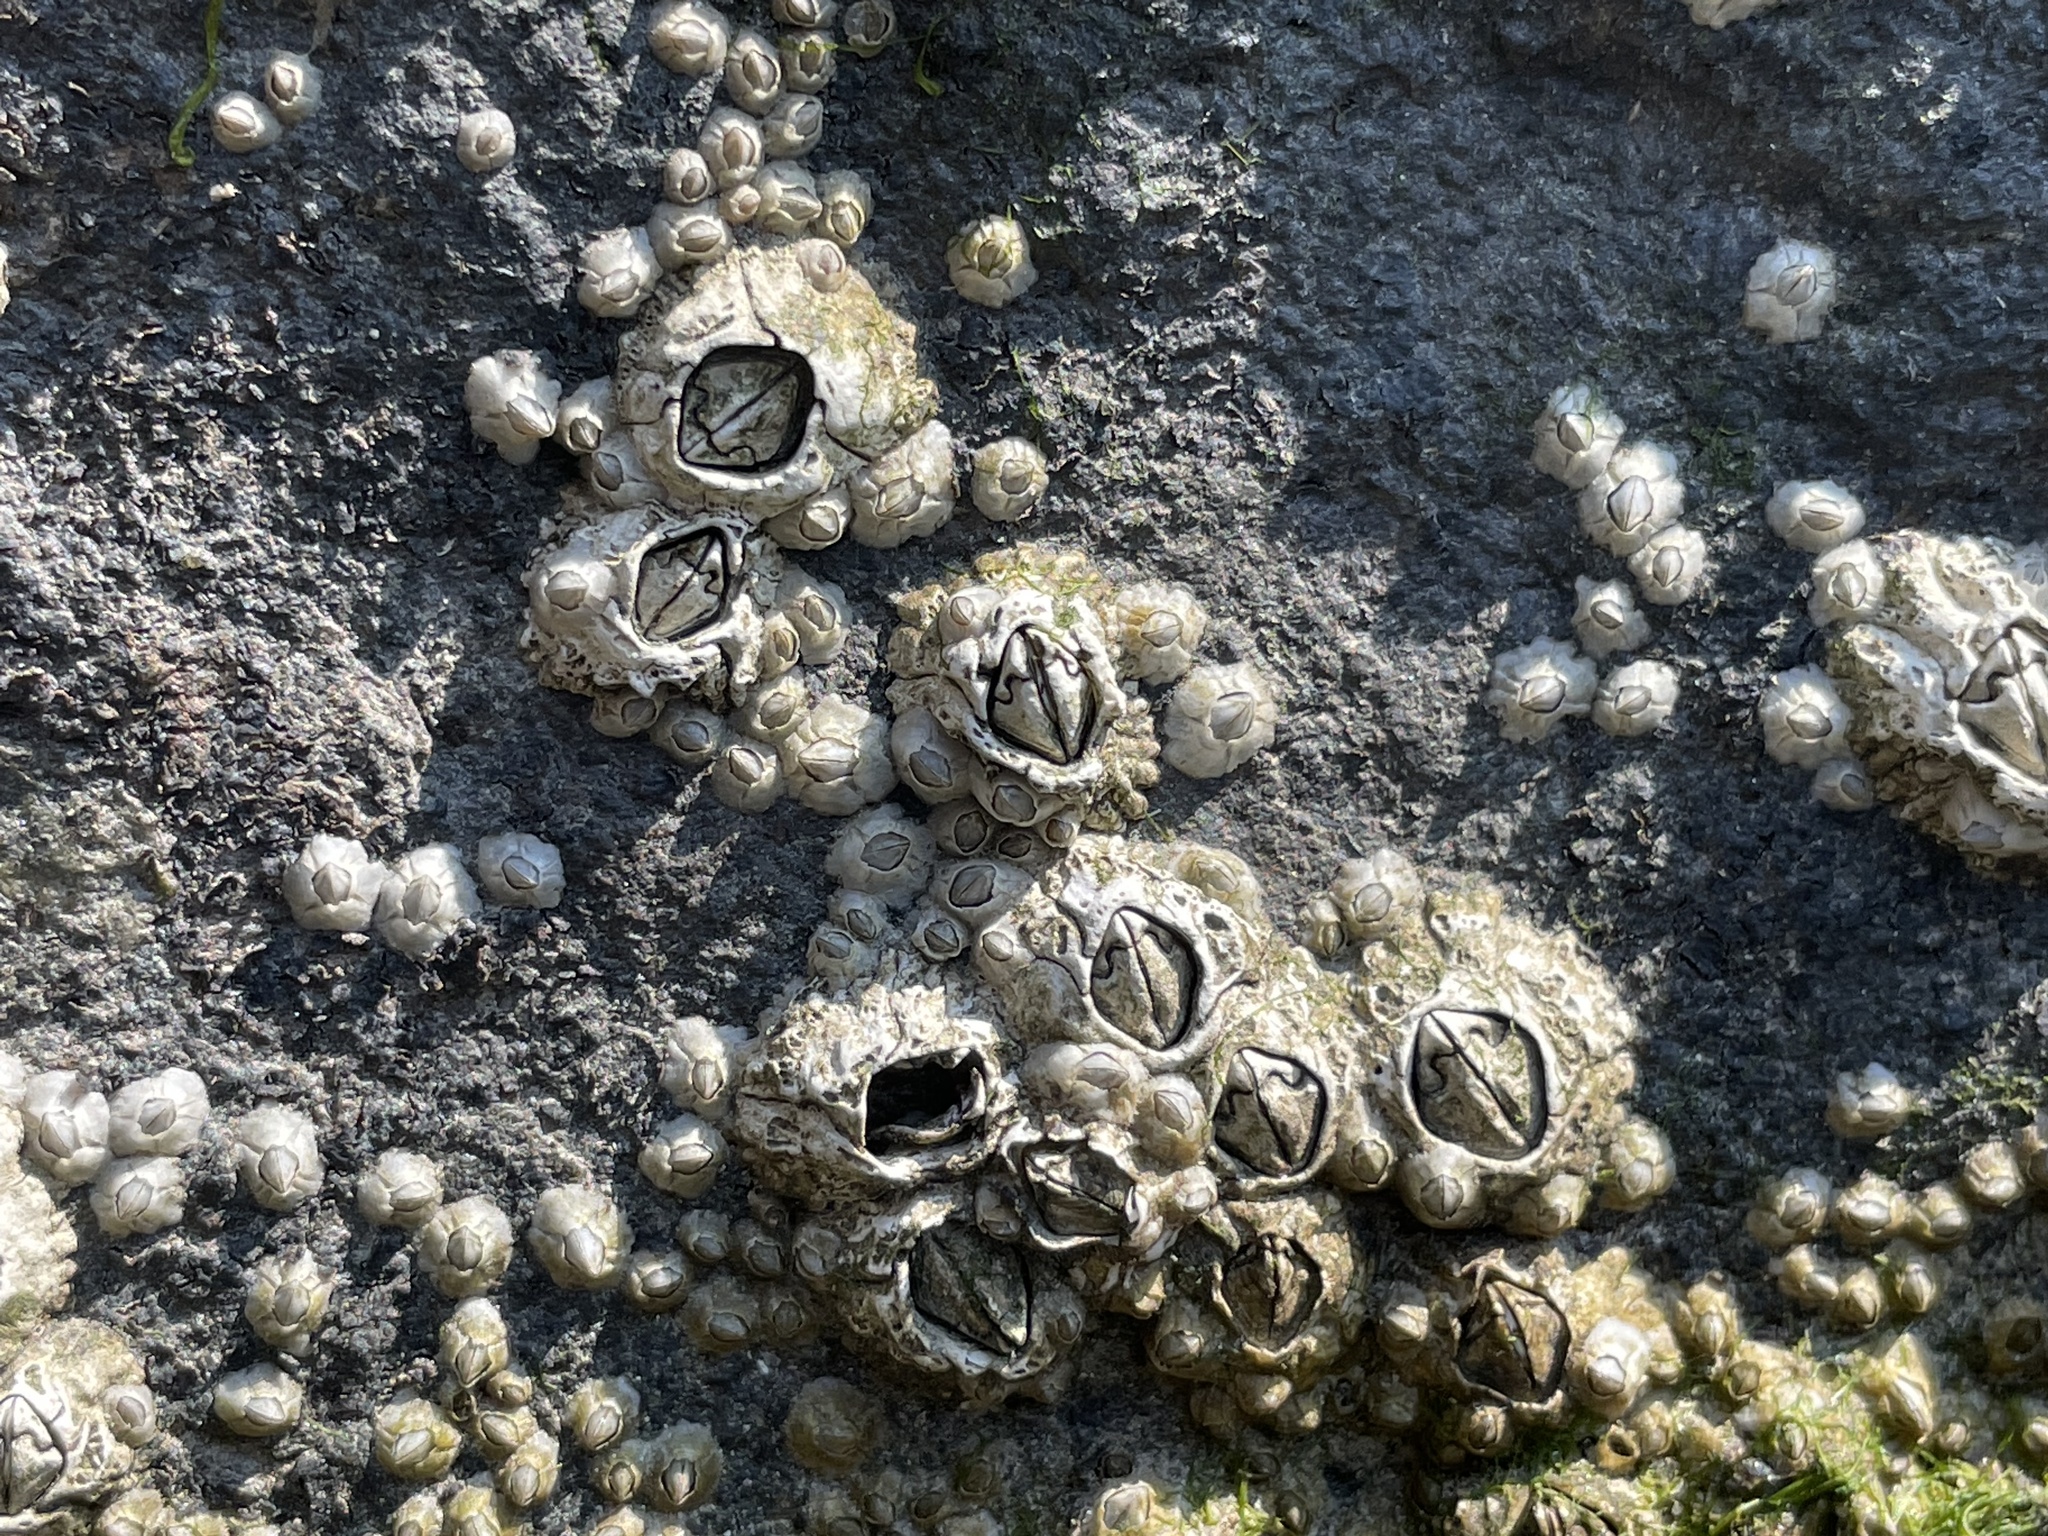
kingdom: Animalia
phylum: Arthropoda
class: Maxillopoda
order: Sessilia
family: Archaeobalanidae
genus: Semibalanus
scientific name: Semibalanus balanoides
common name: Acorn barnacle
